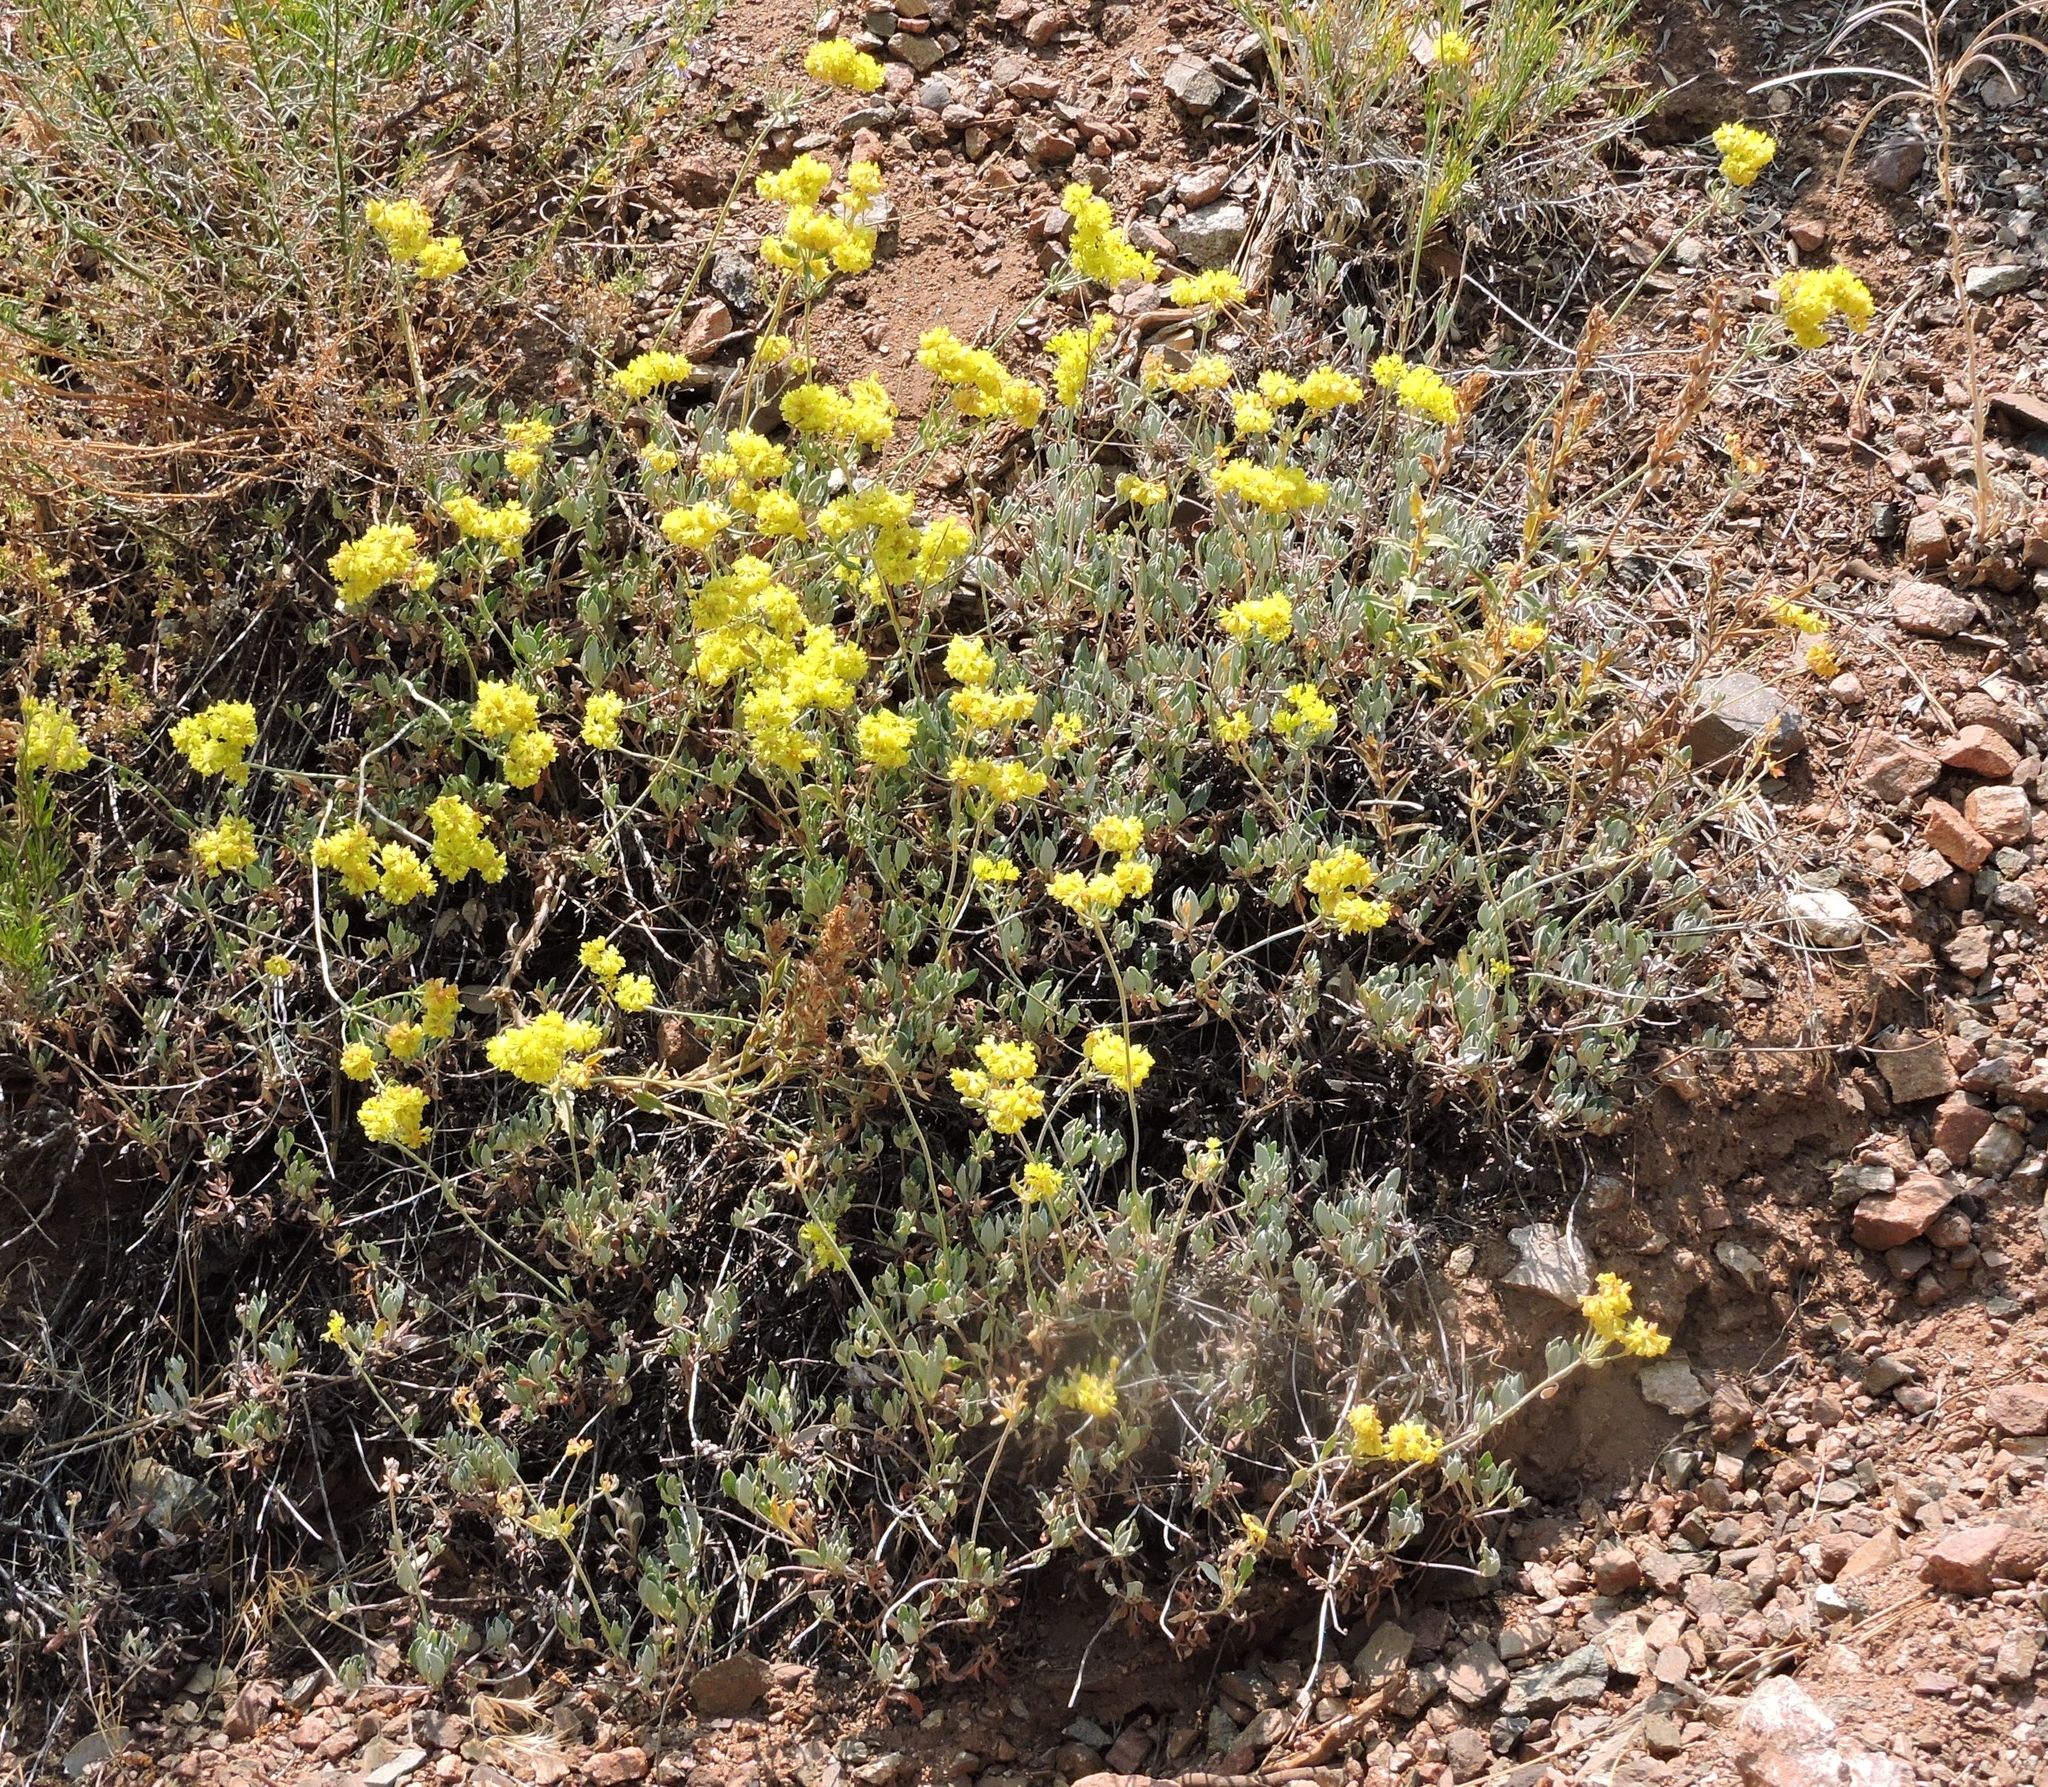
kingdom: Plantae
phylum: Tracheophyta
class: Magnoliopsida
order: Caryophyllales
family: Polygonaceae
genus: Eriogonum
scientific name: Eriogonum umbellatum
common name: Sulfur-buckwheat
